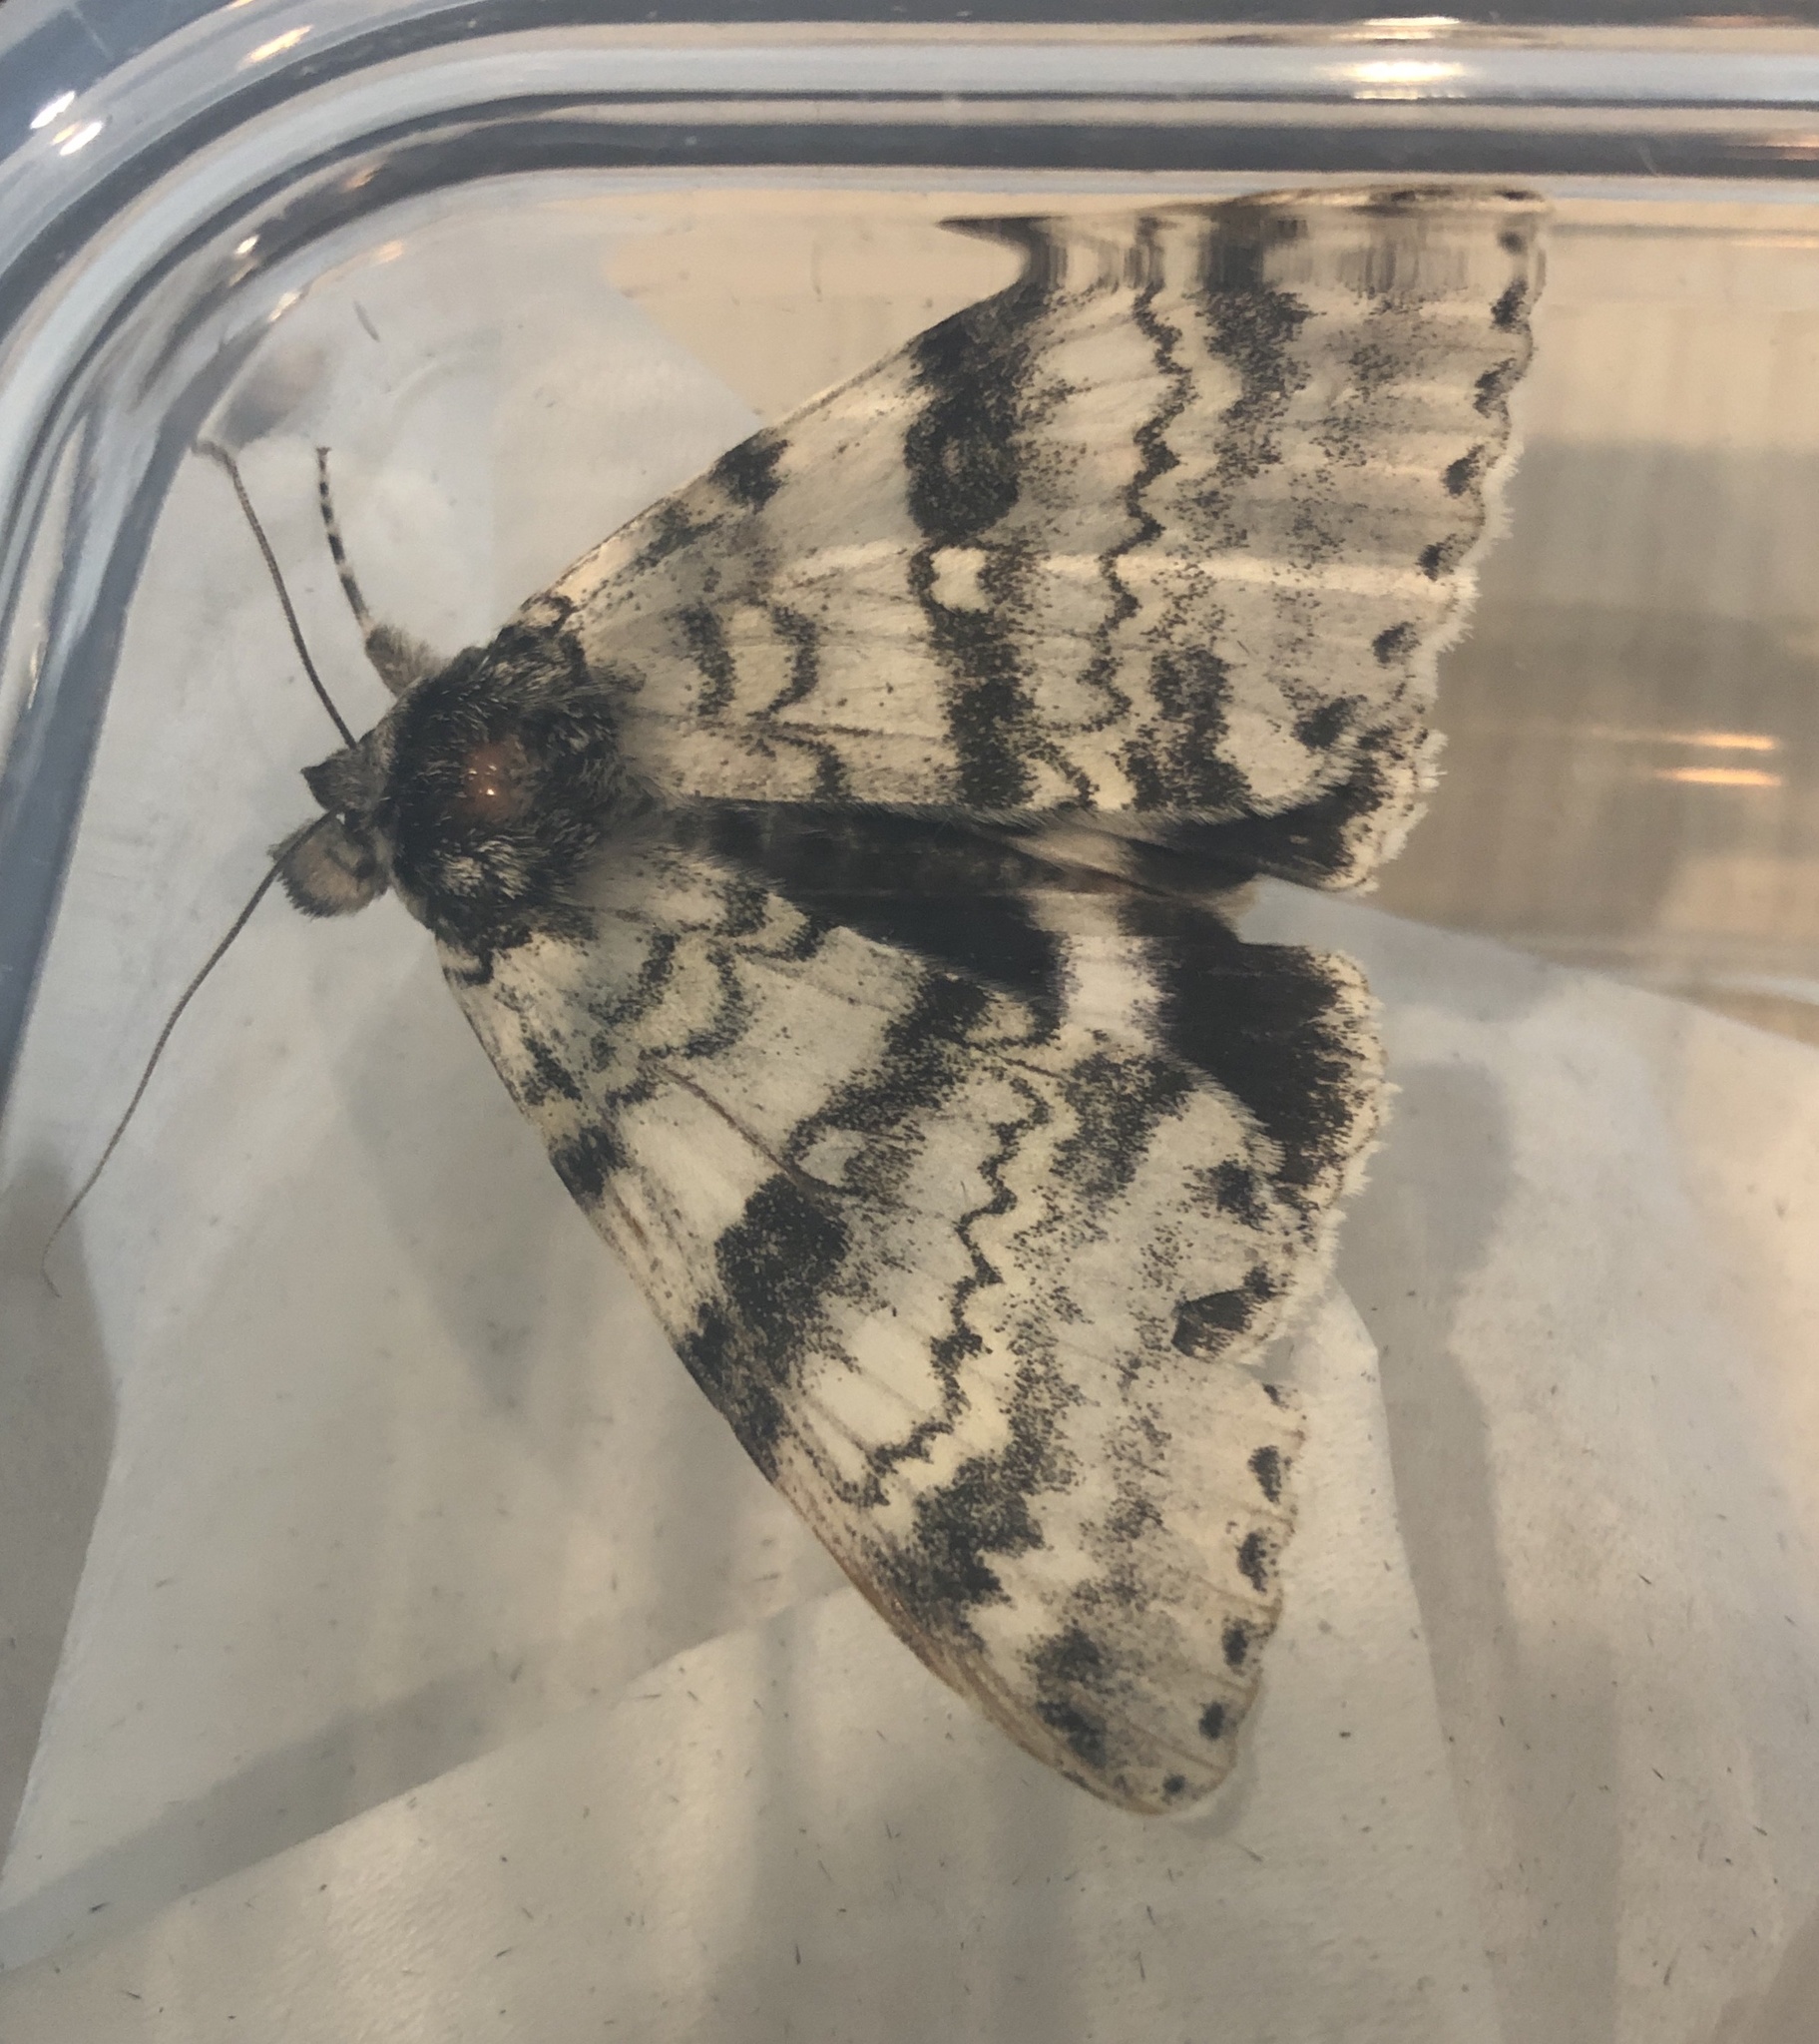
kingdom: Animalia
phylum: Arthropoda
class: Insecta
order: Lepidoptera
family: Erebidae
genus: Catocala
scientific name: Catocala relicta
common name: White underwing
